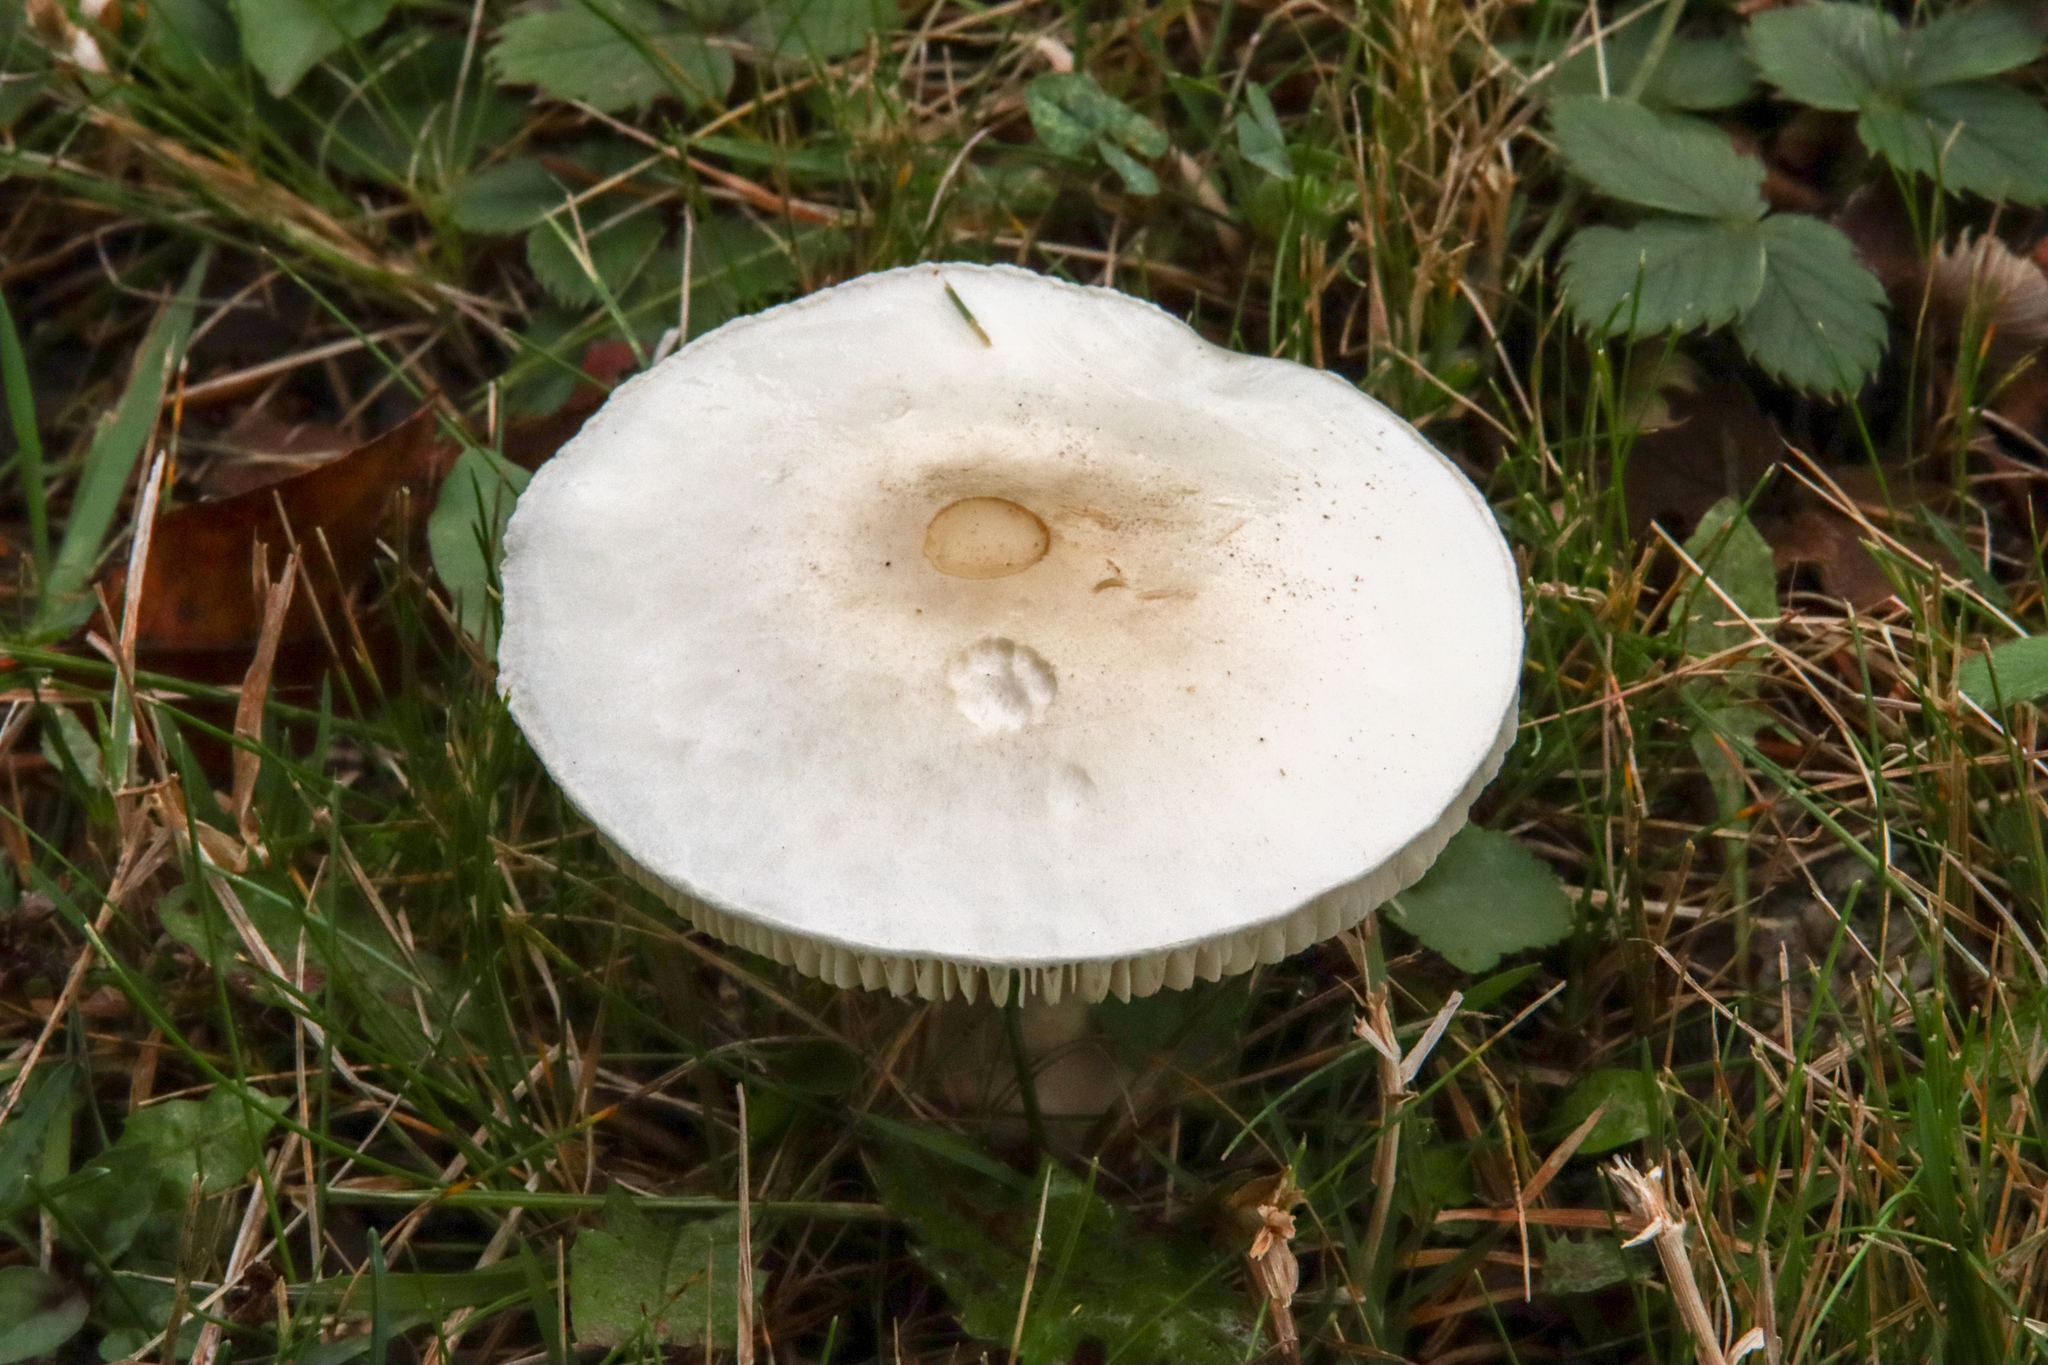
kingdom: Fungi
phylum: Basidiomycota
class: Agaricomycetes
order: Agaricales
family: Agaricaceae
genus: Leucoagaricus
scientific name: Leucoagaricus leucothites
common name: White dapperling
